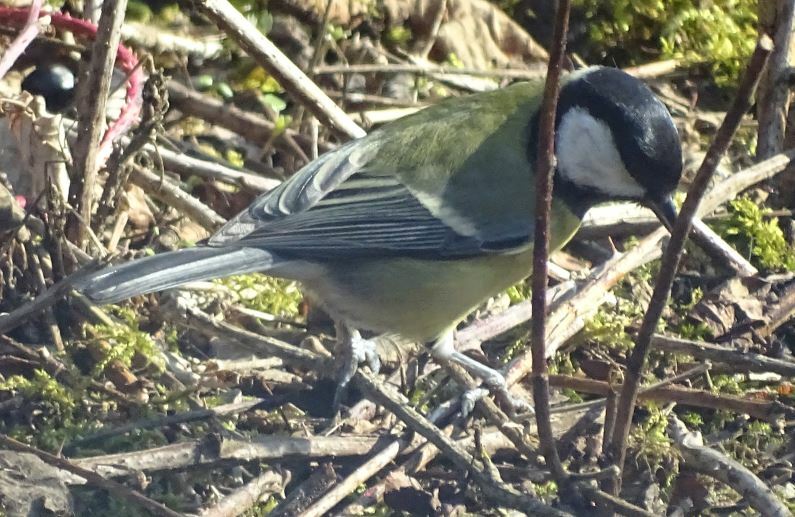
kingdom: Animalia
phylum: Chordata
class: Aves
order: Passeriformes
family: Paridae
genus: Parus
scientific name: Parus major
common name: Great tit
